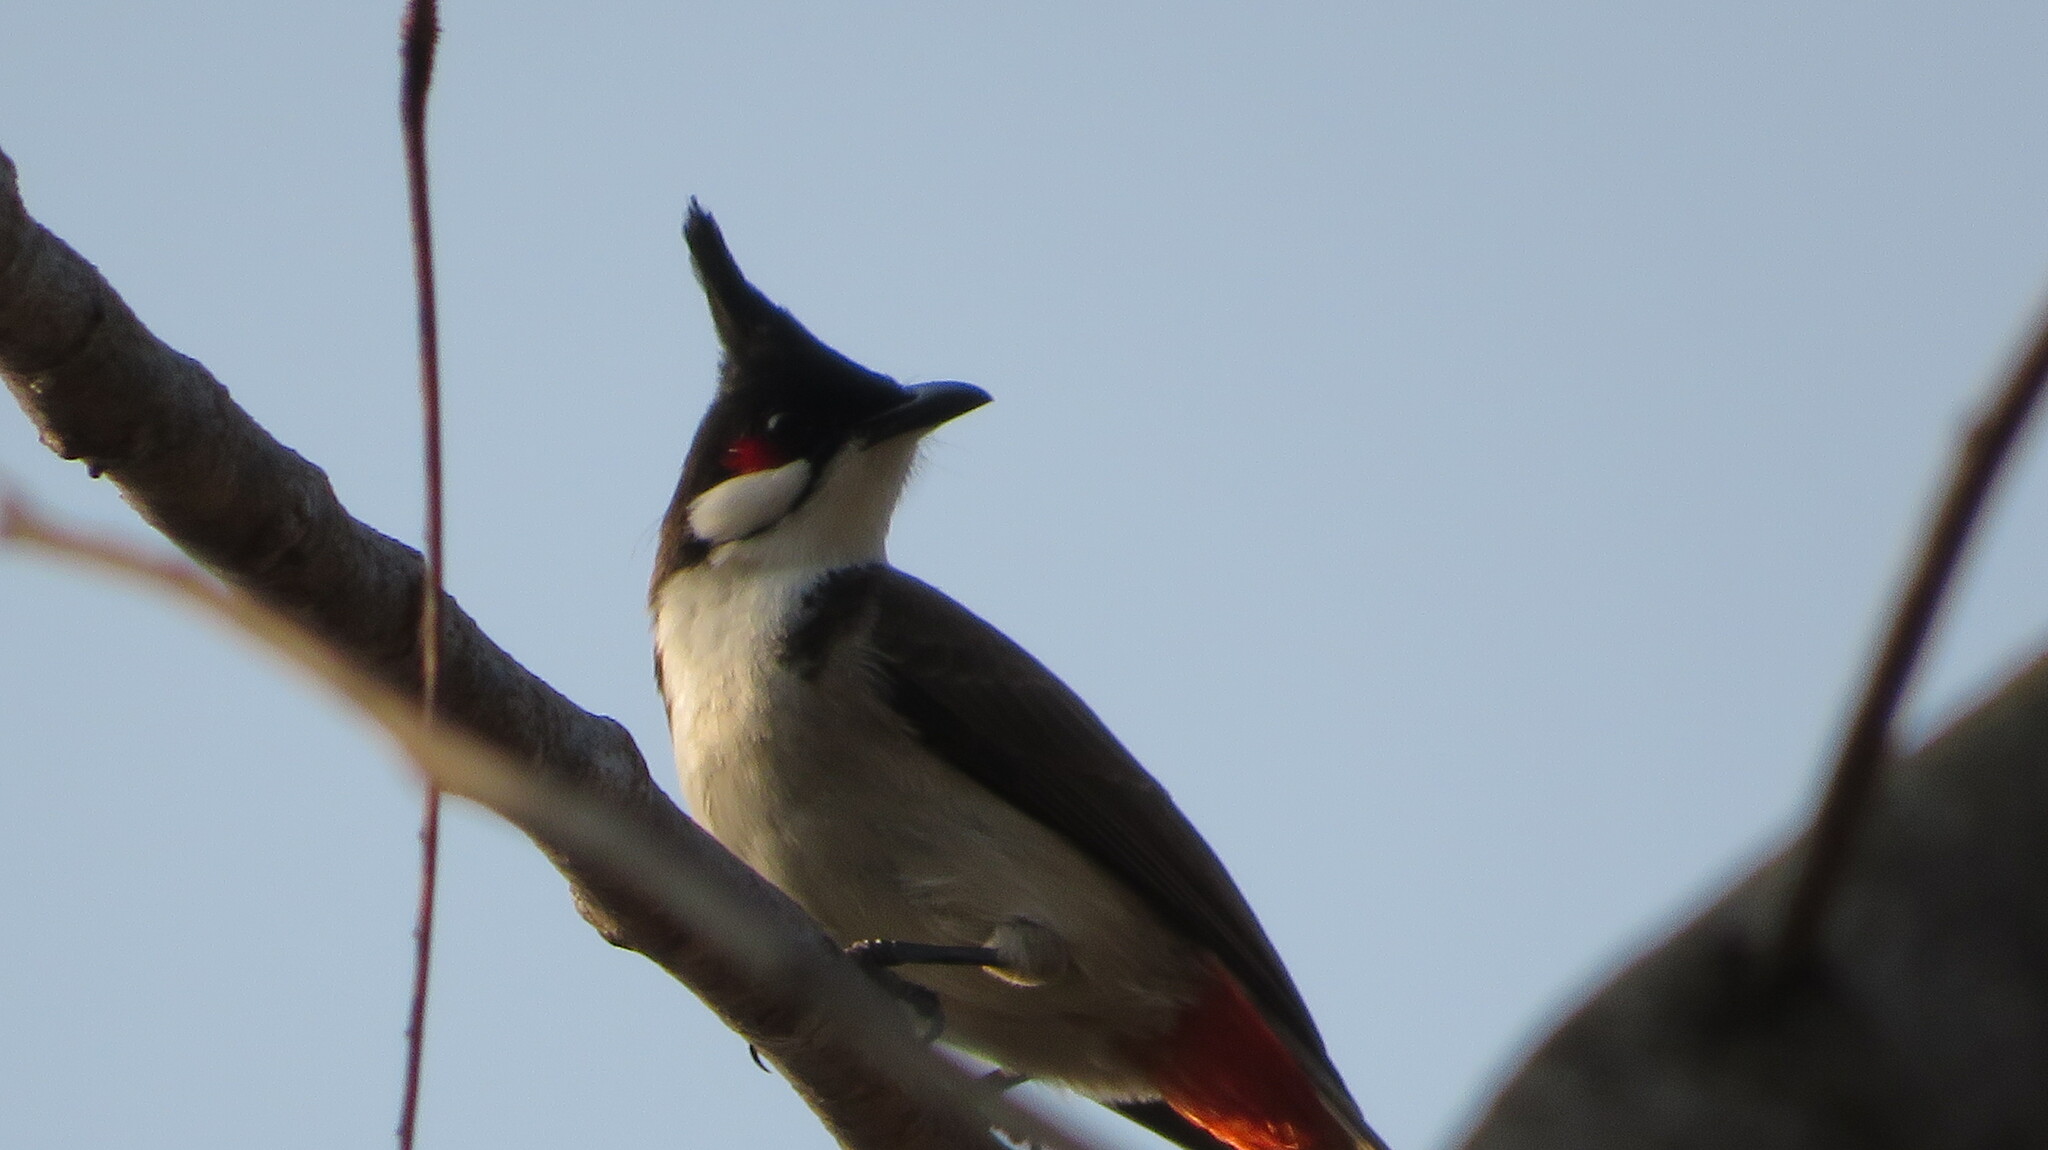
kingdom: Animalia
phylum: Chordata
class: Aves
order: Passeriformes
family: Pycnonotidae
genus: Pycnonotus
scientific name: Pycnonotus jocosus
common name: Red-whiskered bulbul
